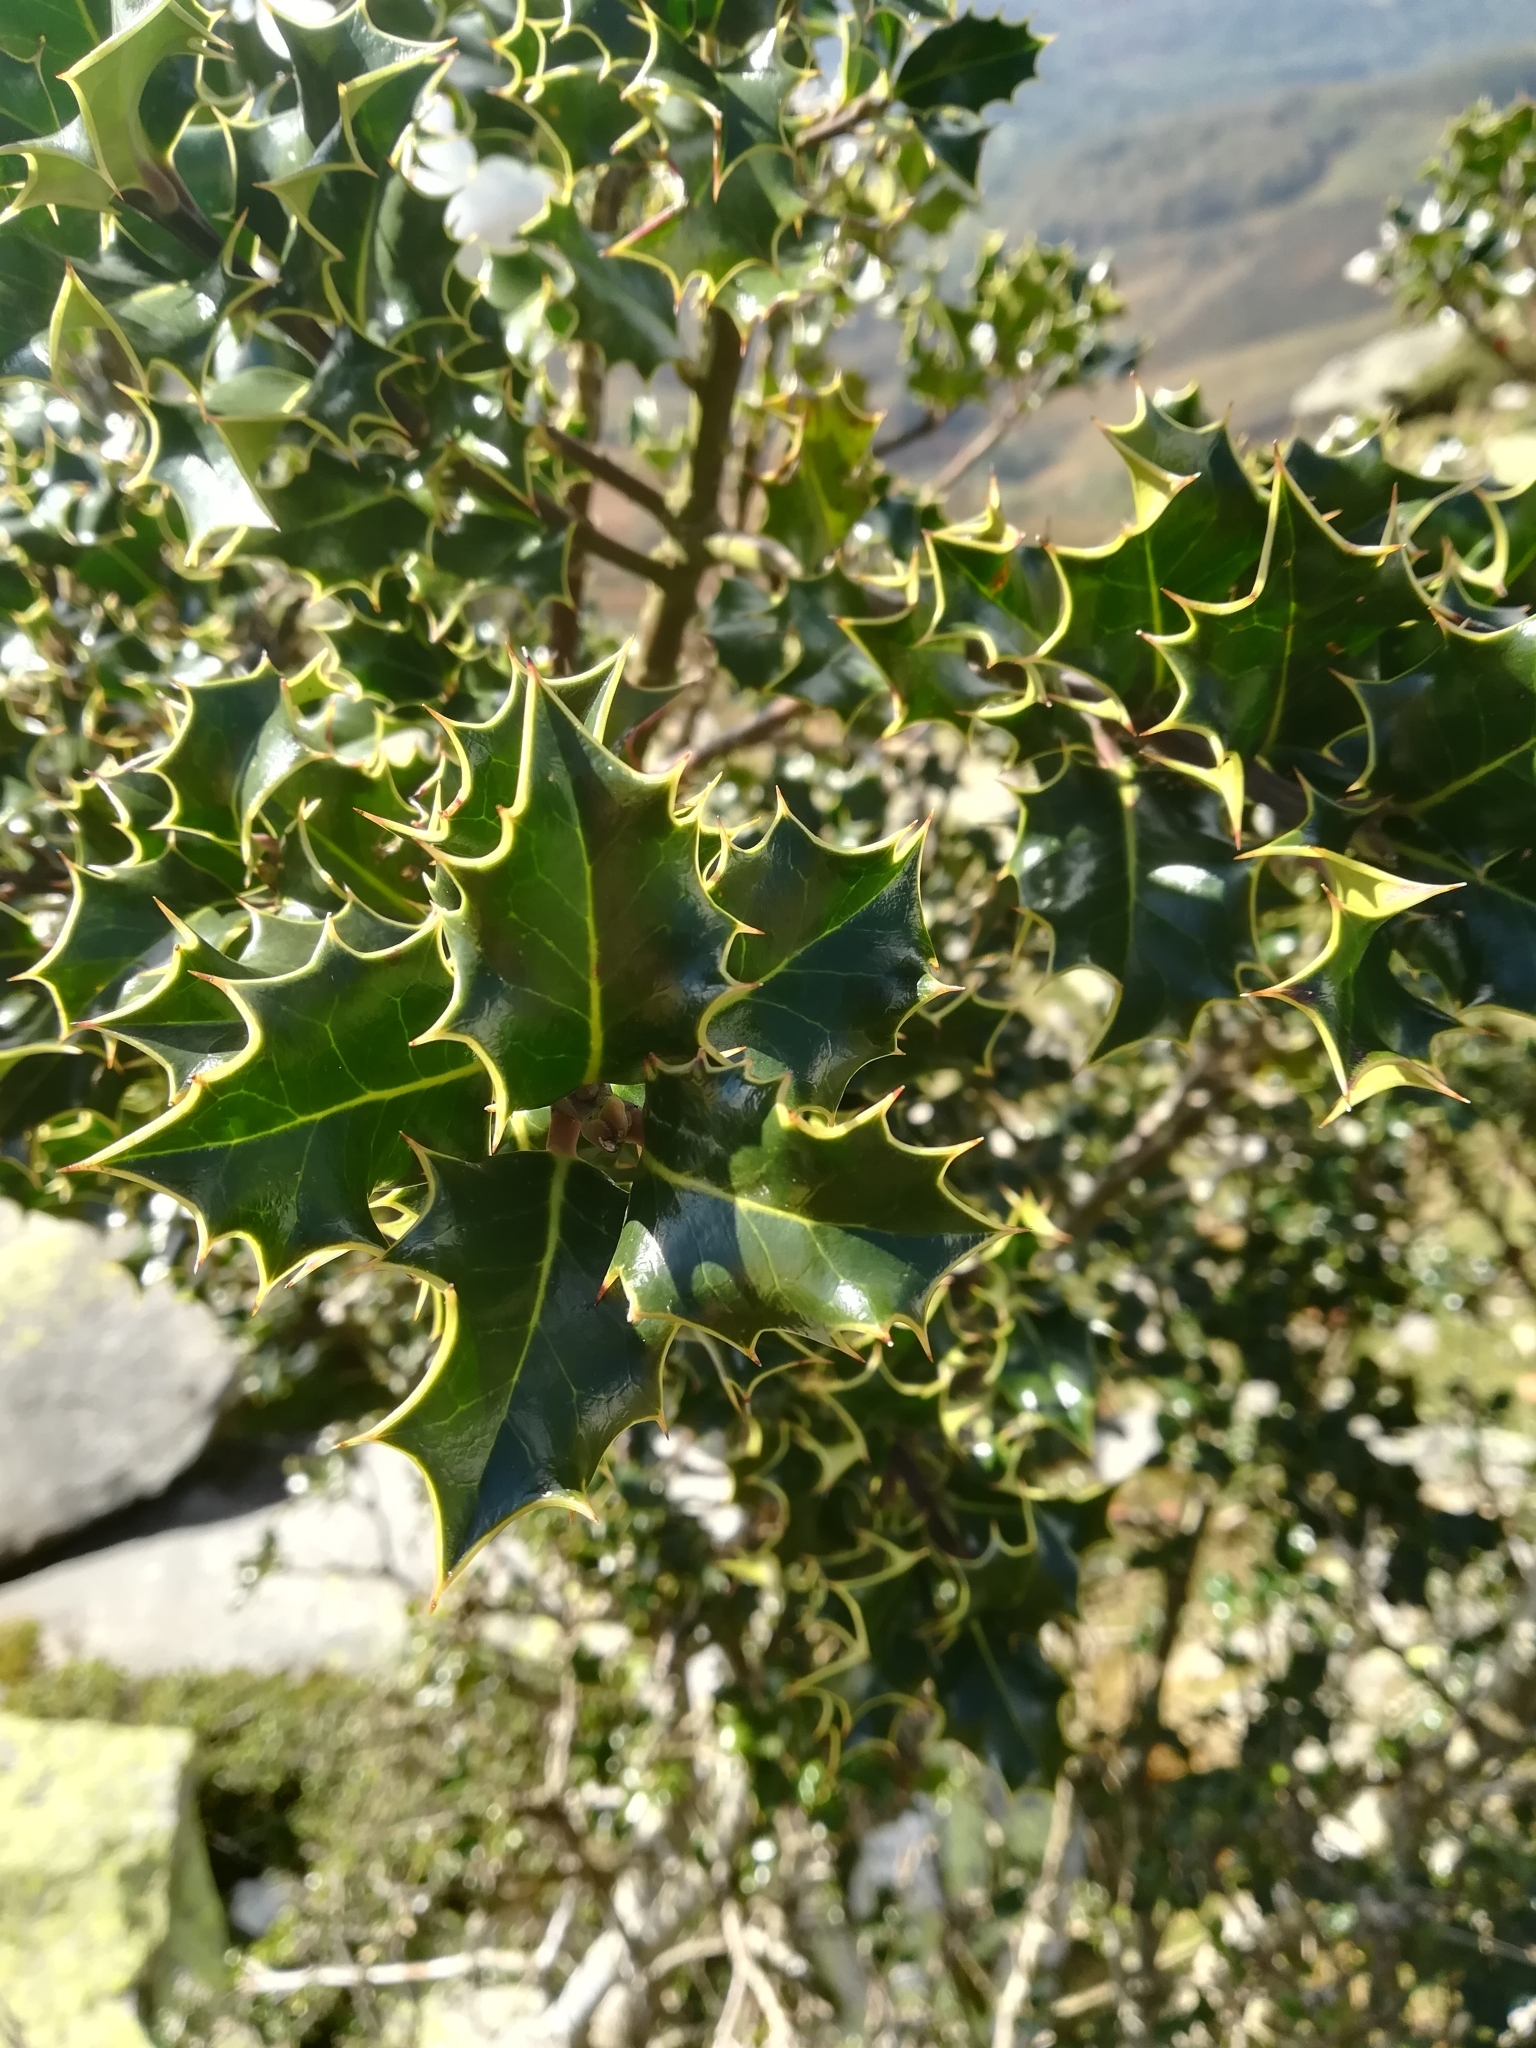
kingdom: Plantae
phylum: Tracheophyta
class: Magnoliopsida
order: Aquifoliales
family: Aquifoliaceae
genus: Ilex
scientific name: Ilex aquifolium
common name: English holly
